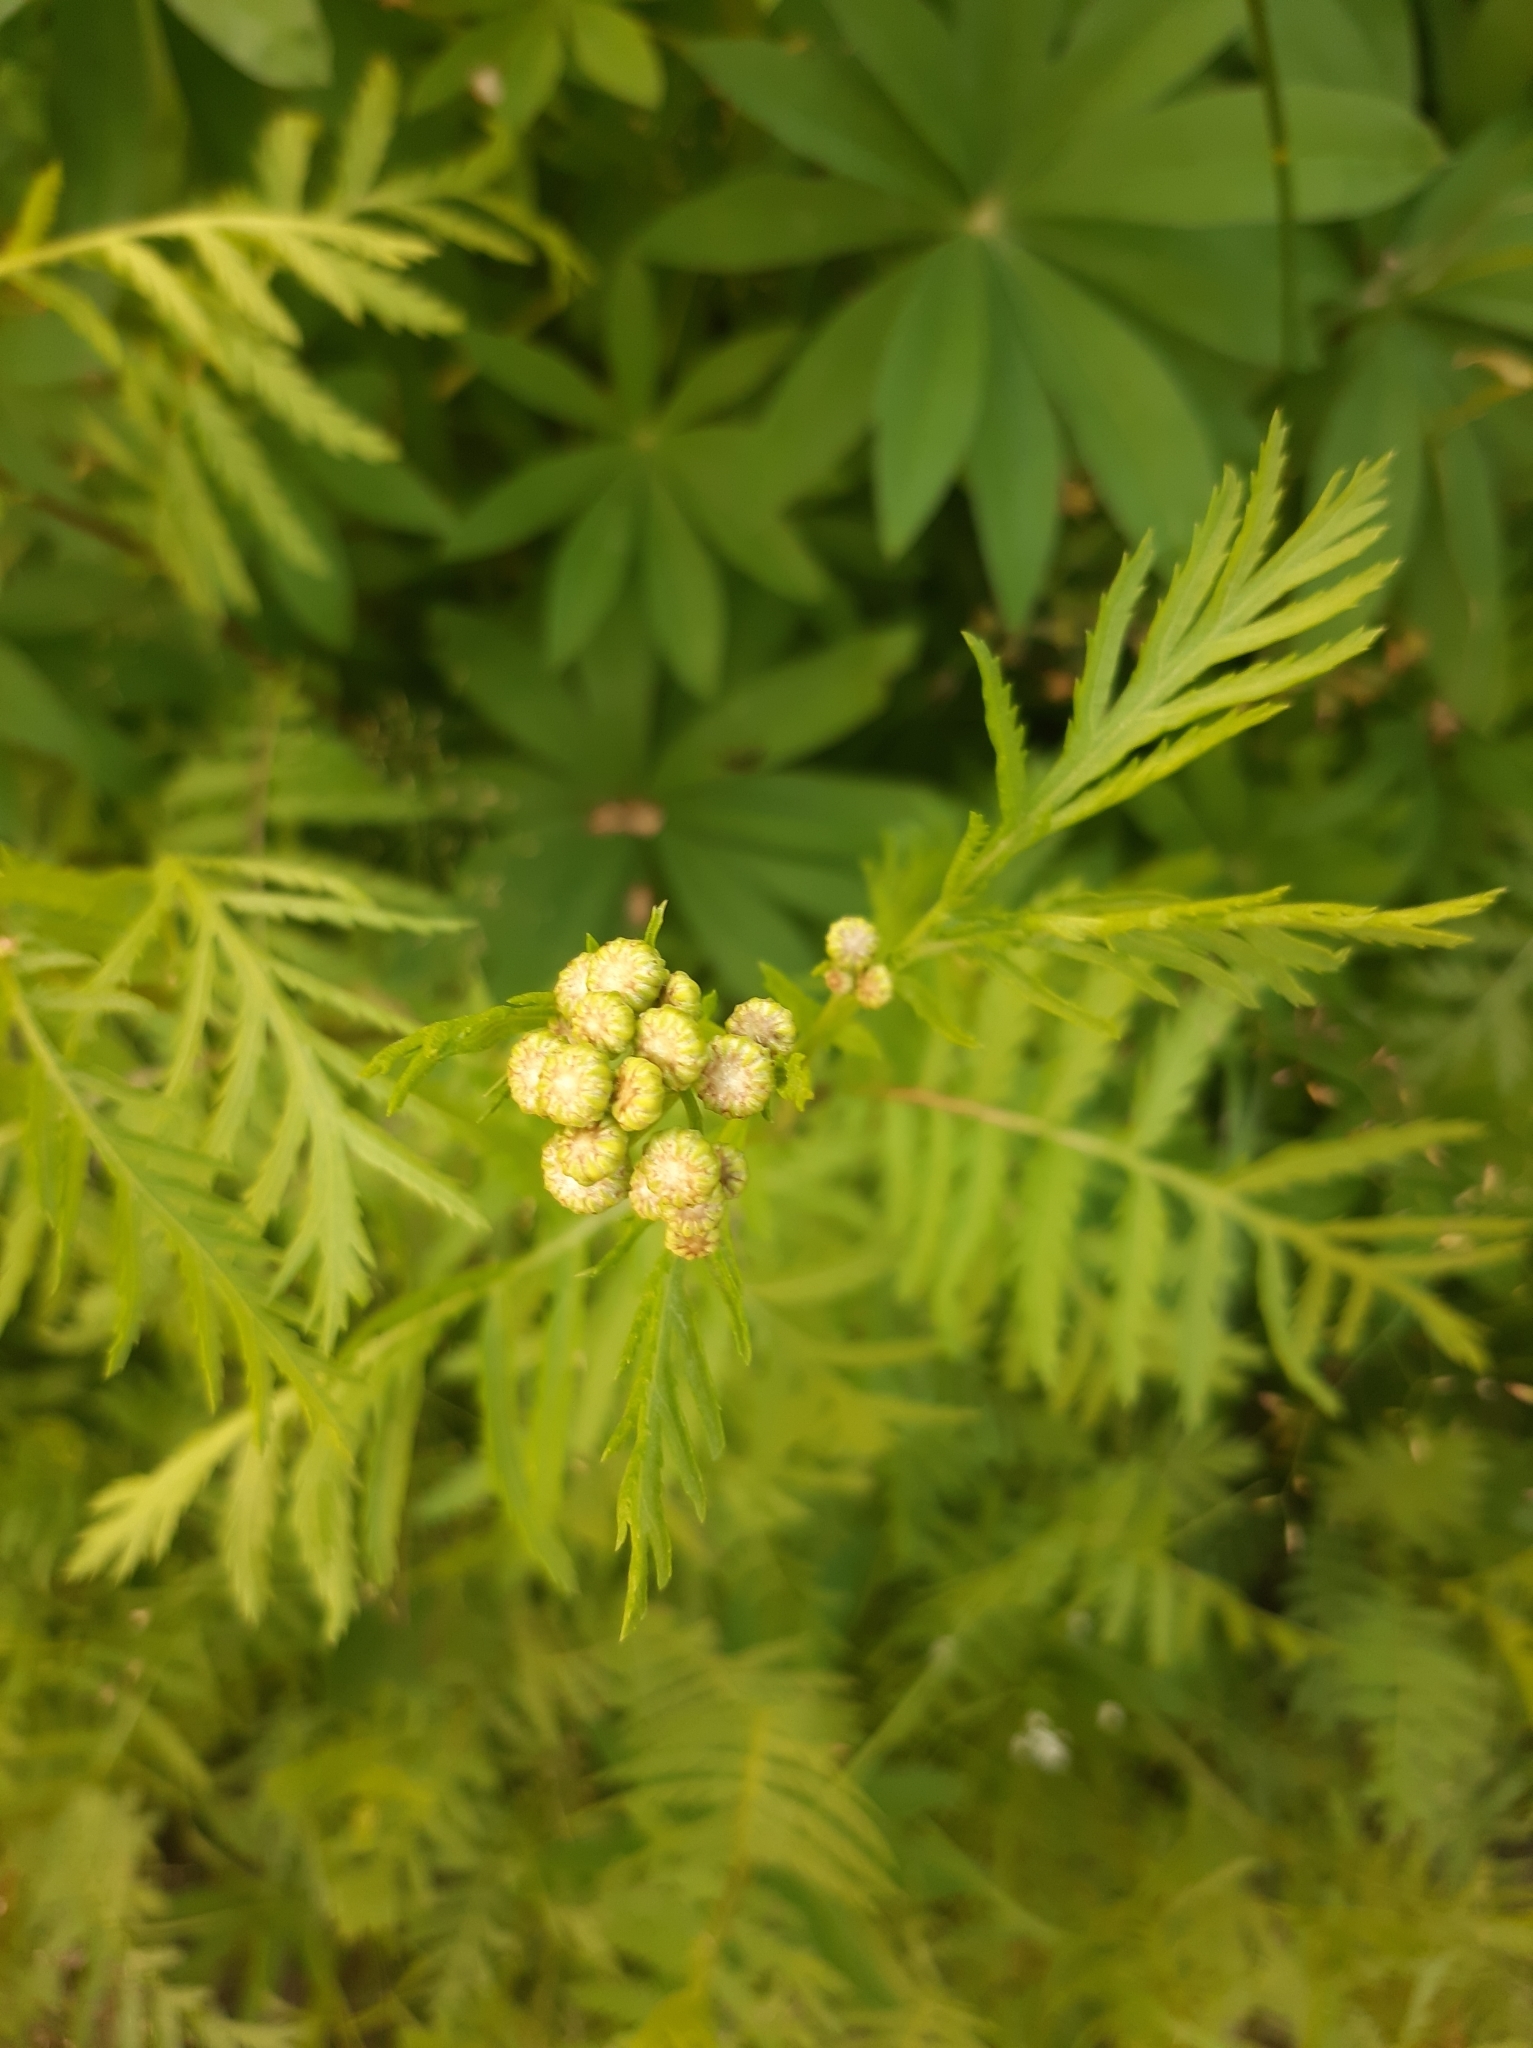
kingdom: Plantae
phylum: Tracheophyta
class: Magnoliopsida
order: Asterales
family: Asteraceae
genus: Tanacetum
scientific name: Tanacetum vulgare
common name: Common tansy
